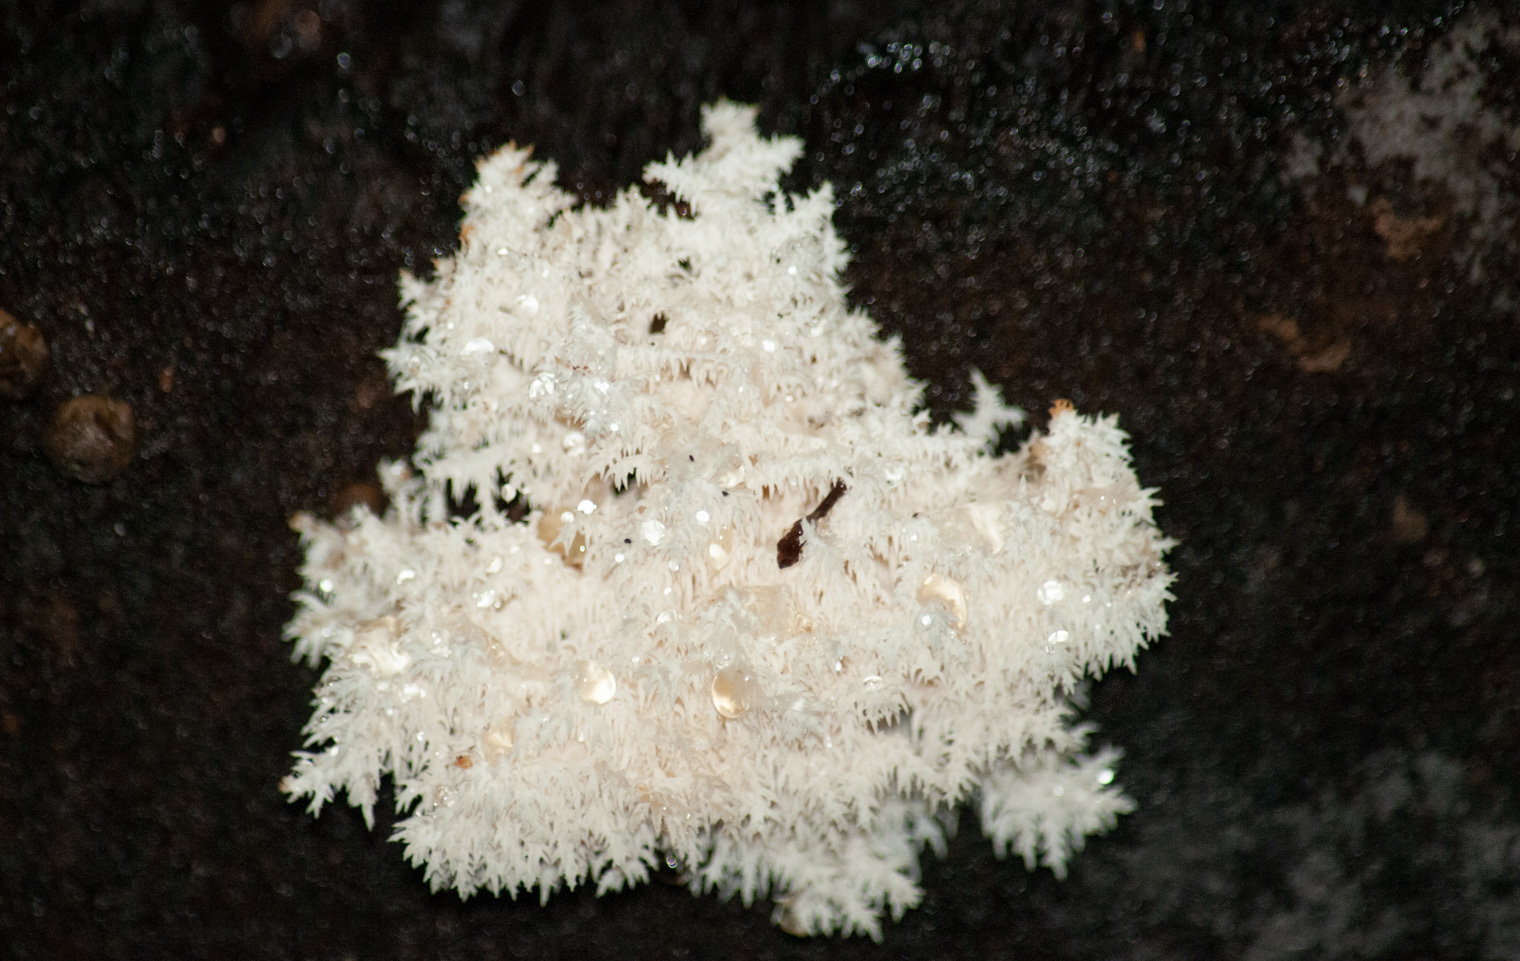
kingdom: Fungi
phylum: Basidiomycota
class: Agaricomycetes
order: Russulales
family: Hericiaceae
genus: Hericium
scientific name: Hericium coralloides
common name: Coral tooth
